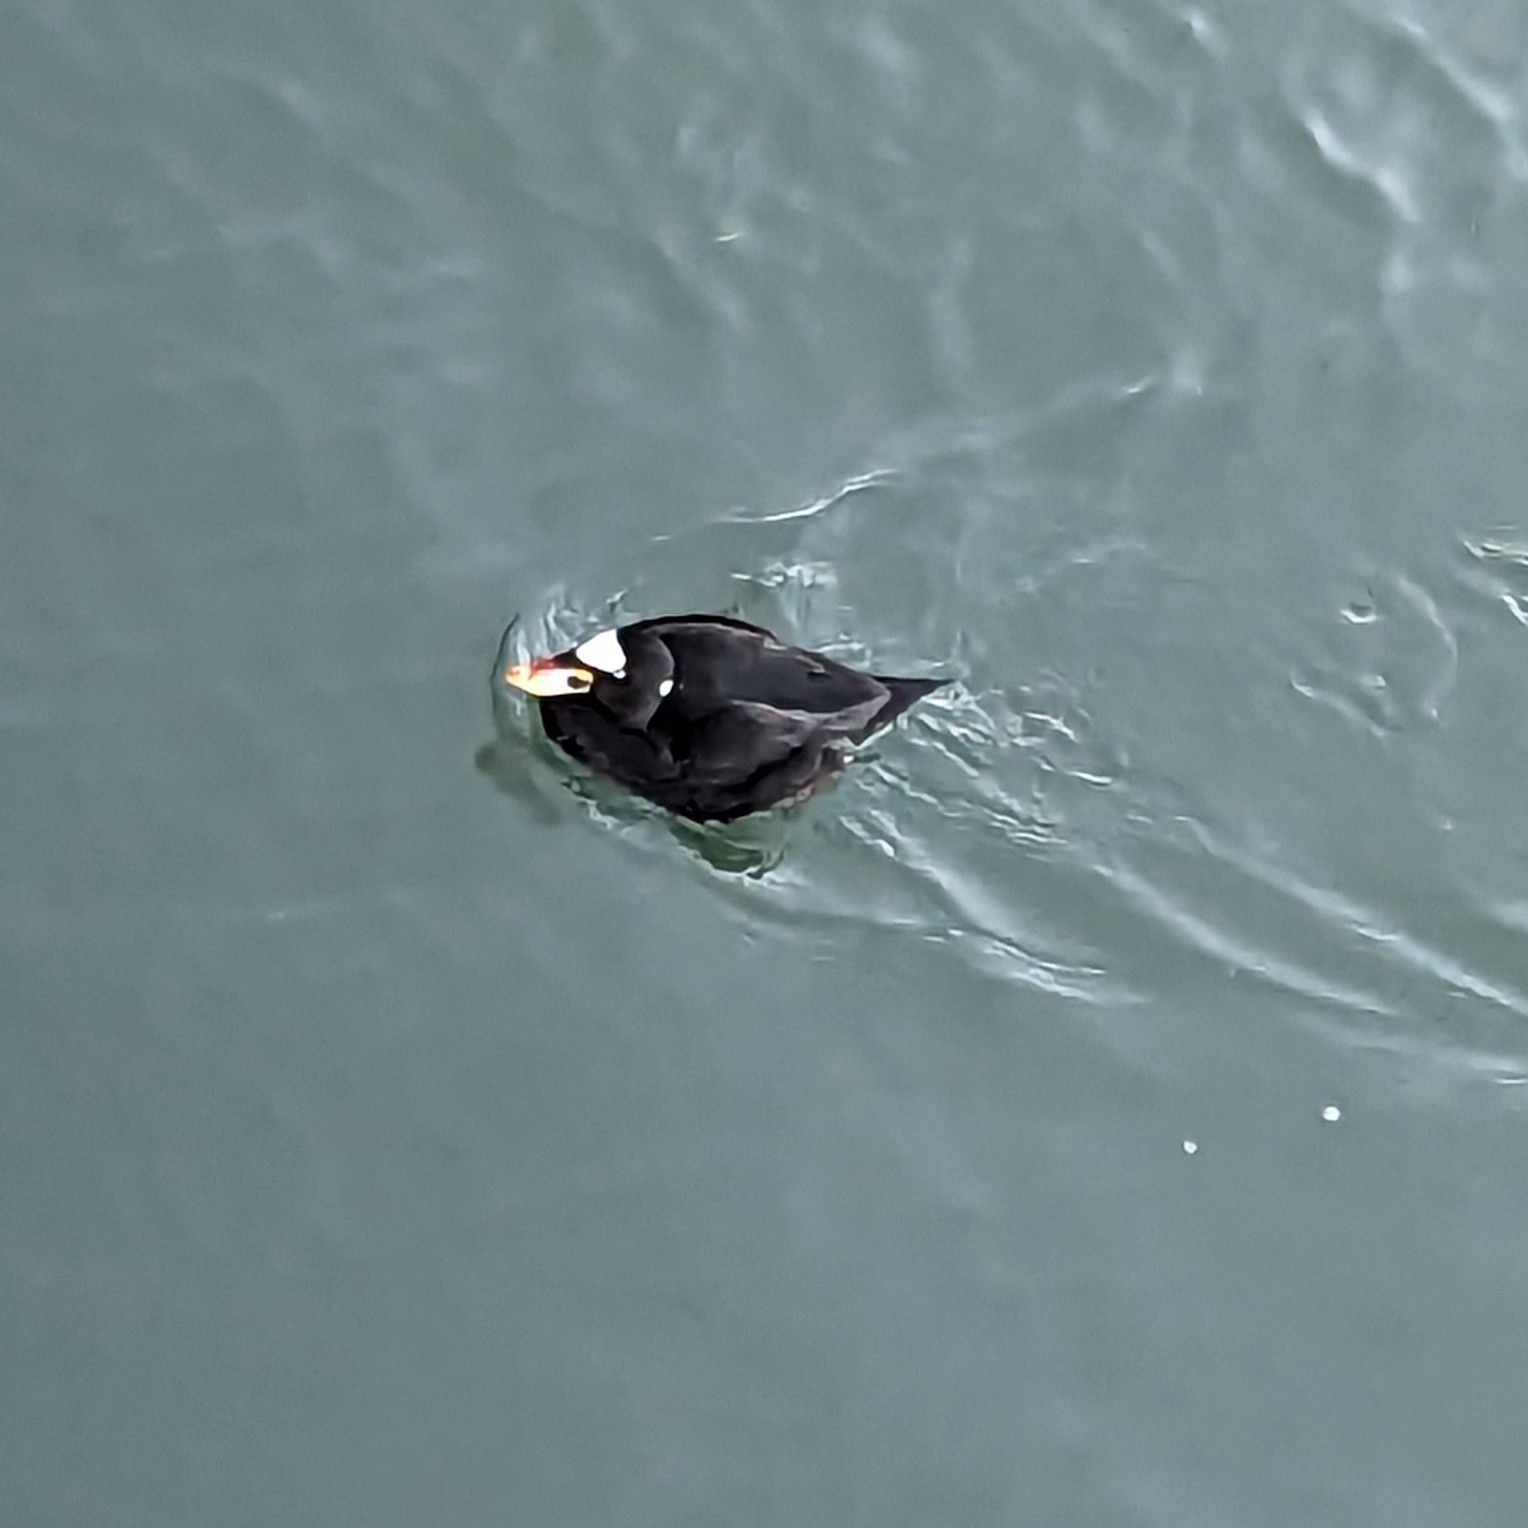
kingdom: Animalia
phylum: Chordata
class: Aves
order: Anseriformes
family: Anatidae
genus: Melanitta
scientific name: Melanitta perspicillata
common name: Surf scoter
